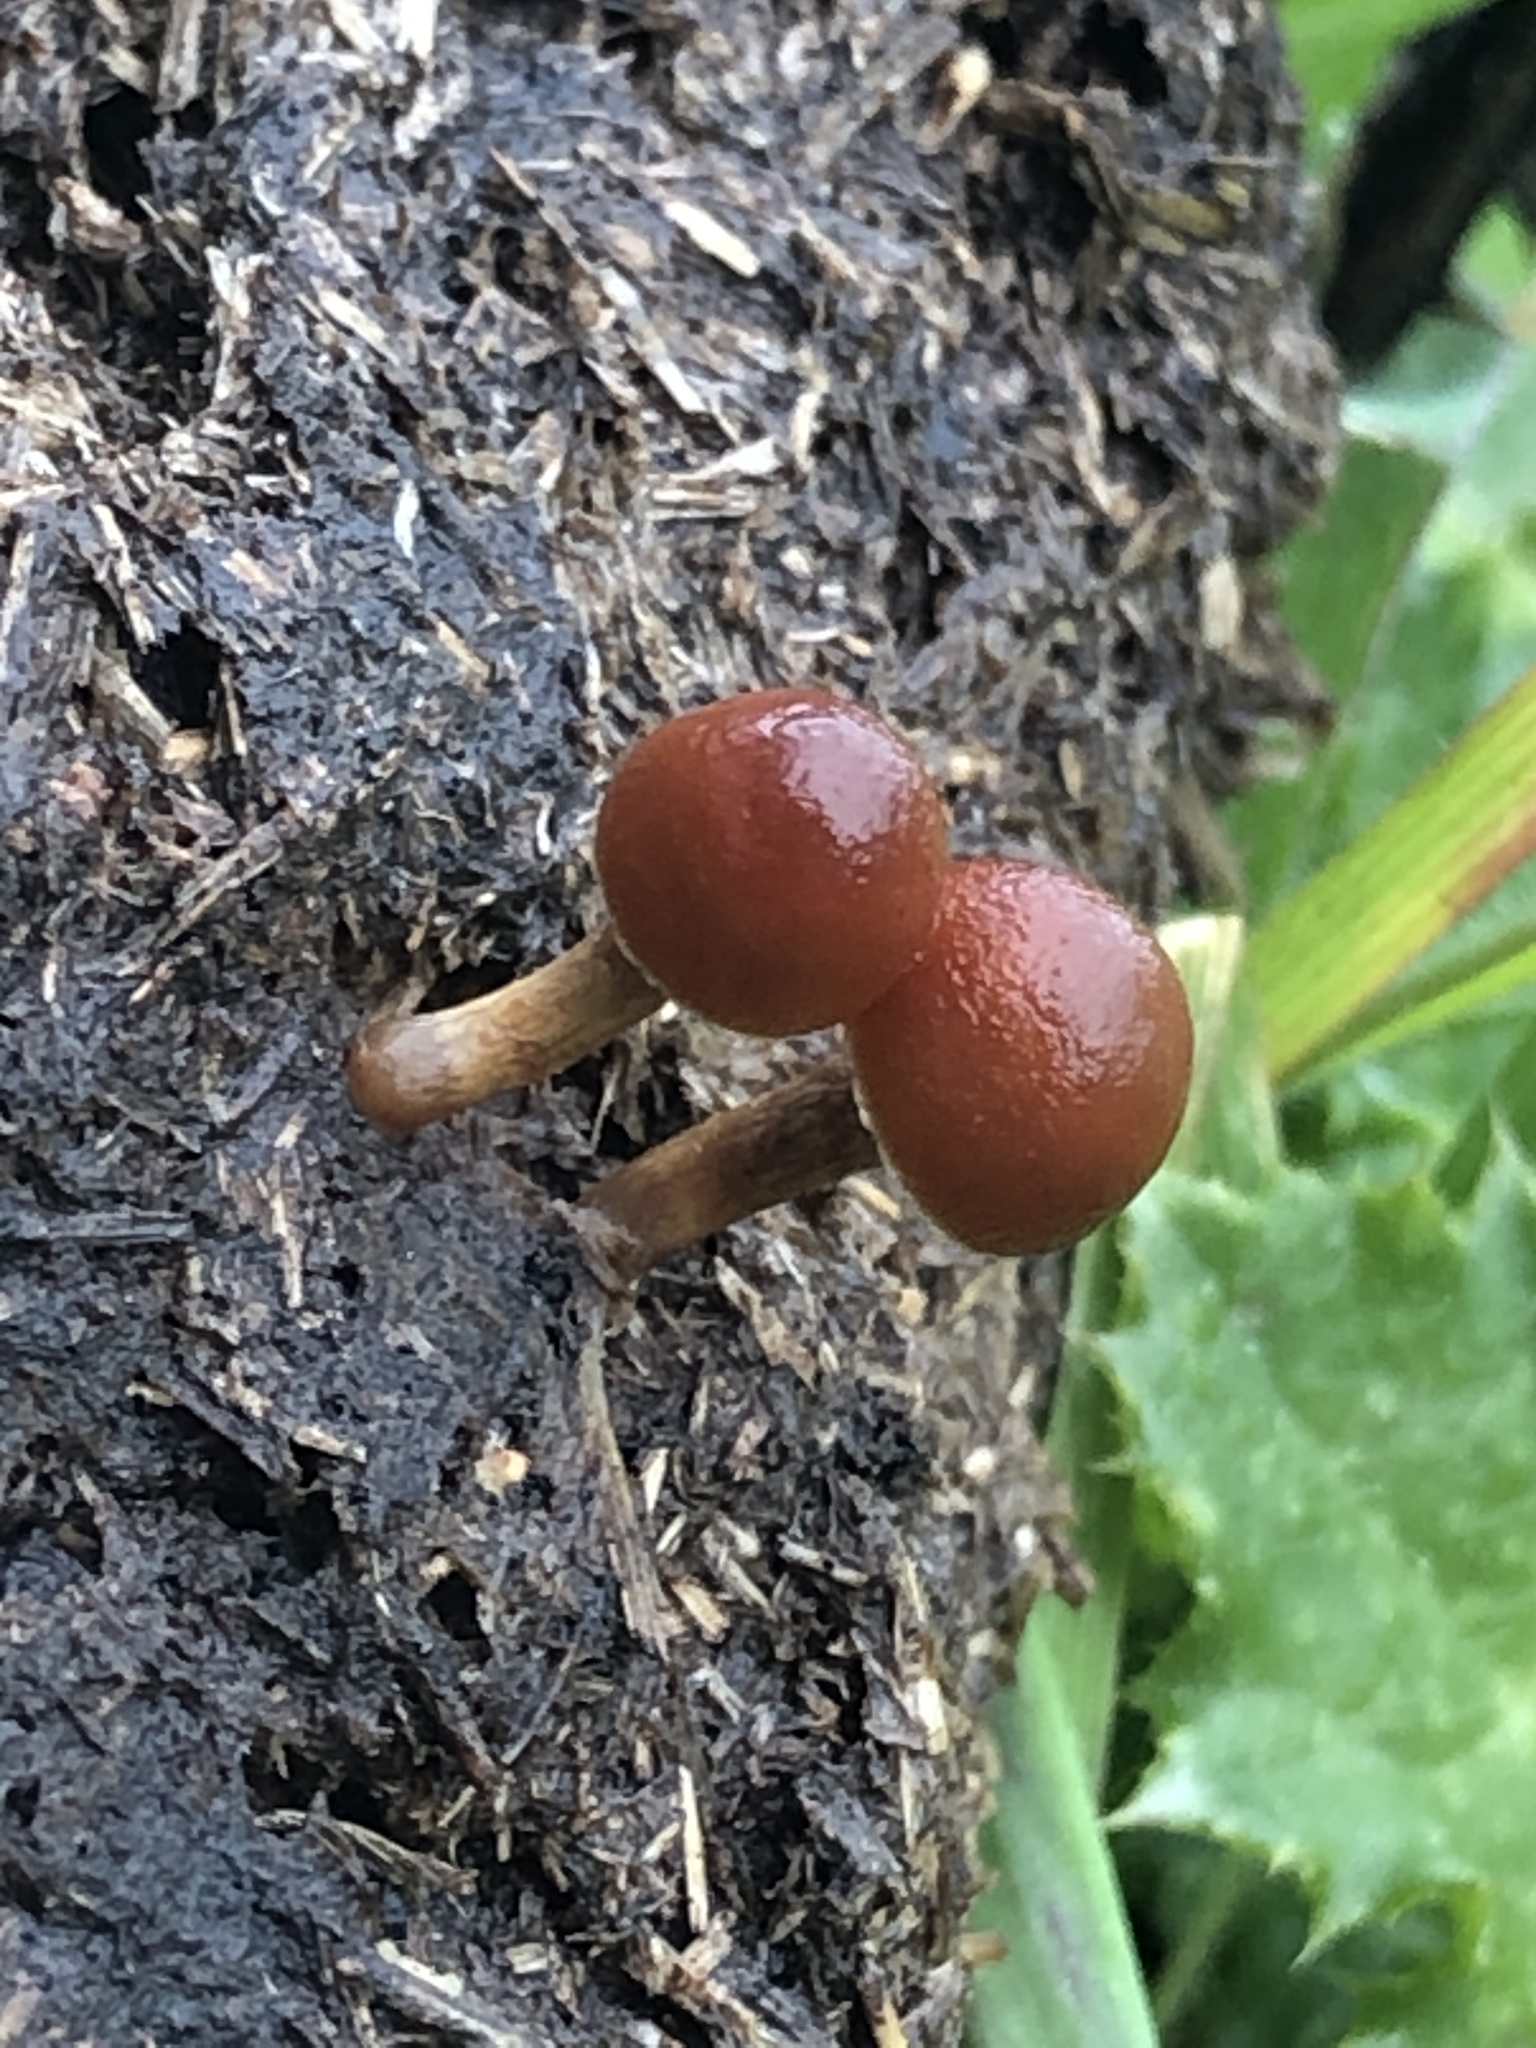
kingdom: Fungi
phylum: Basidiomycota
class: Agaricomycetes
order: Agaricales
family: Strophariaceae
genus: Deconica
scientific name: Deconica coprophila
